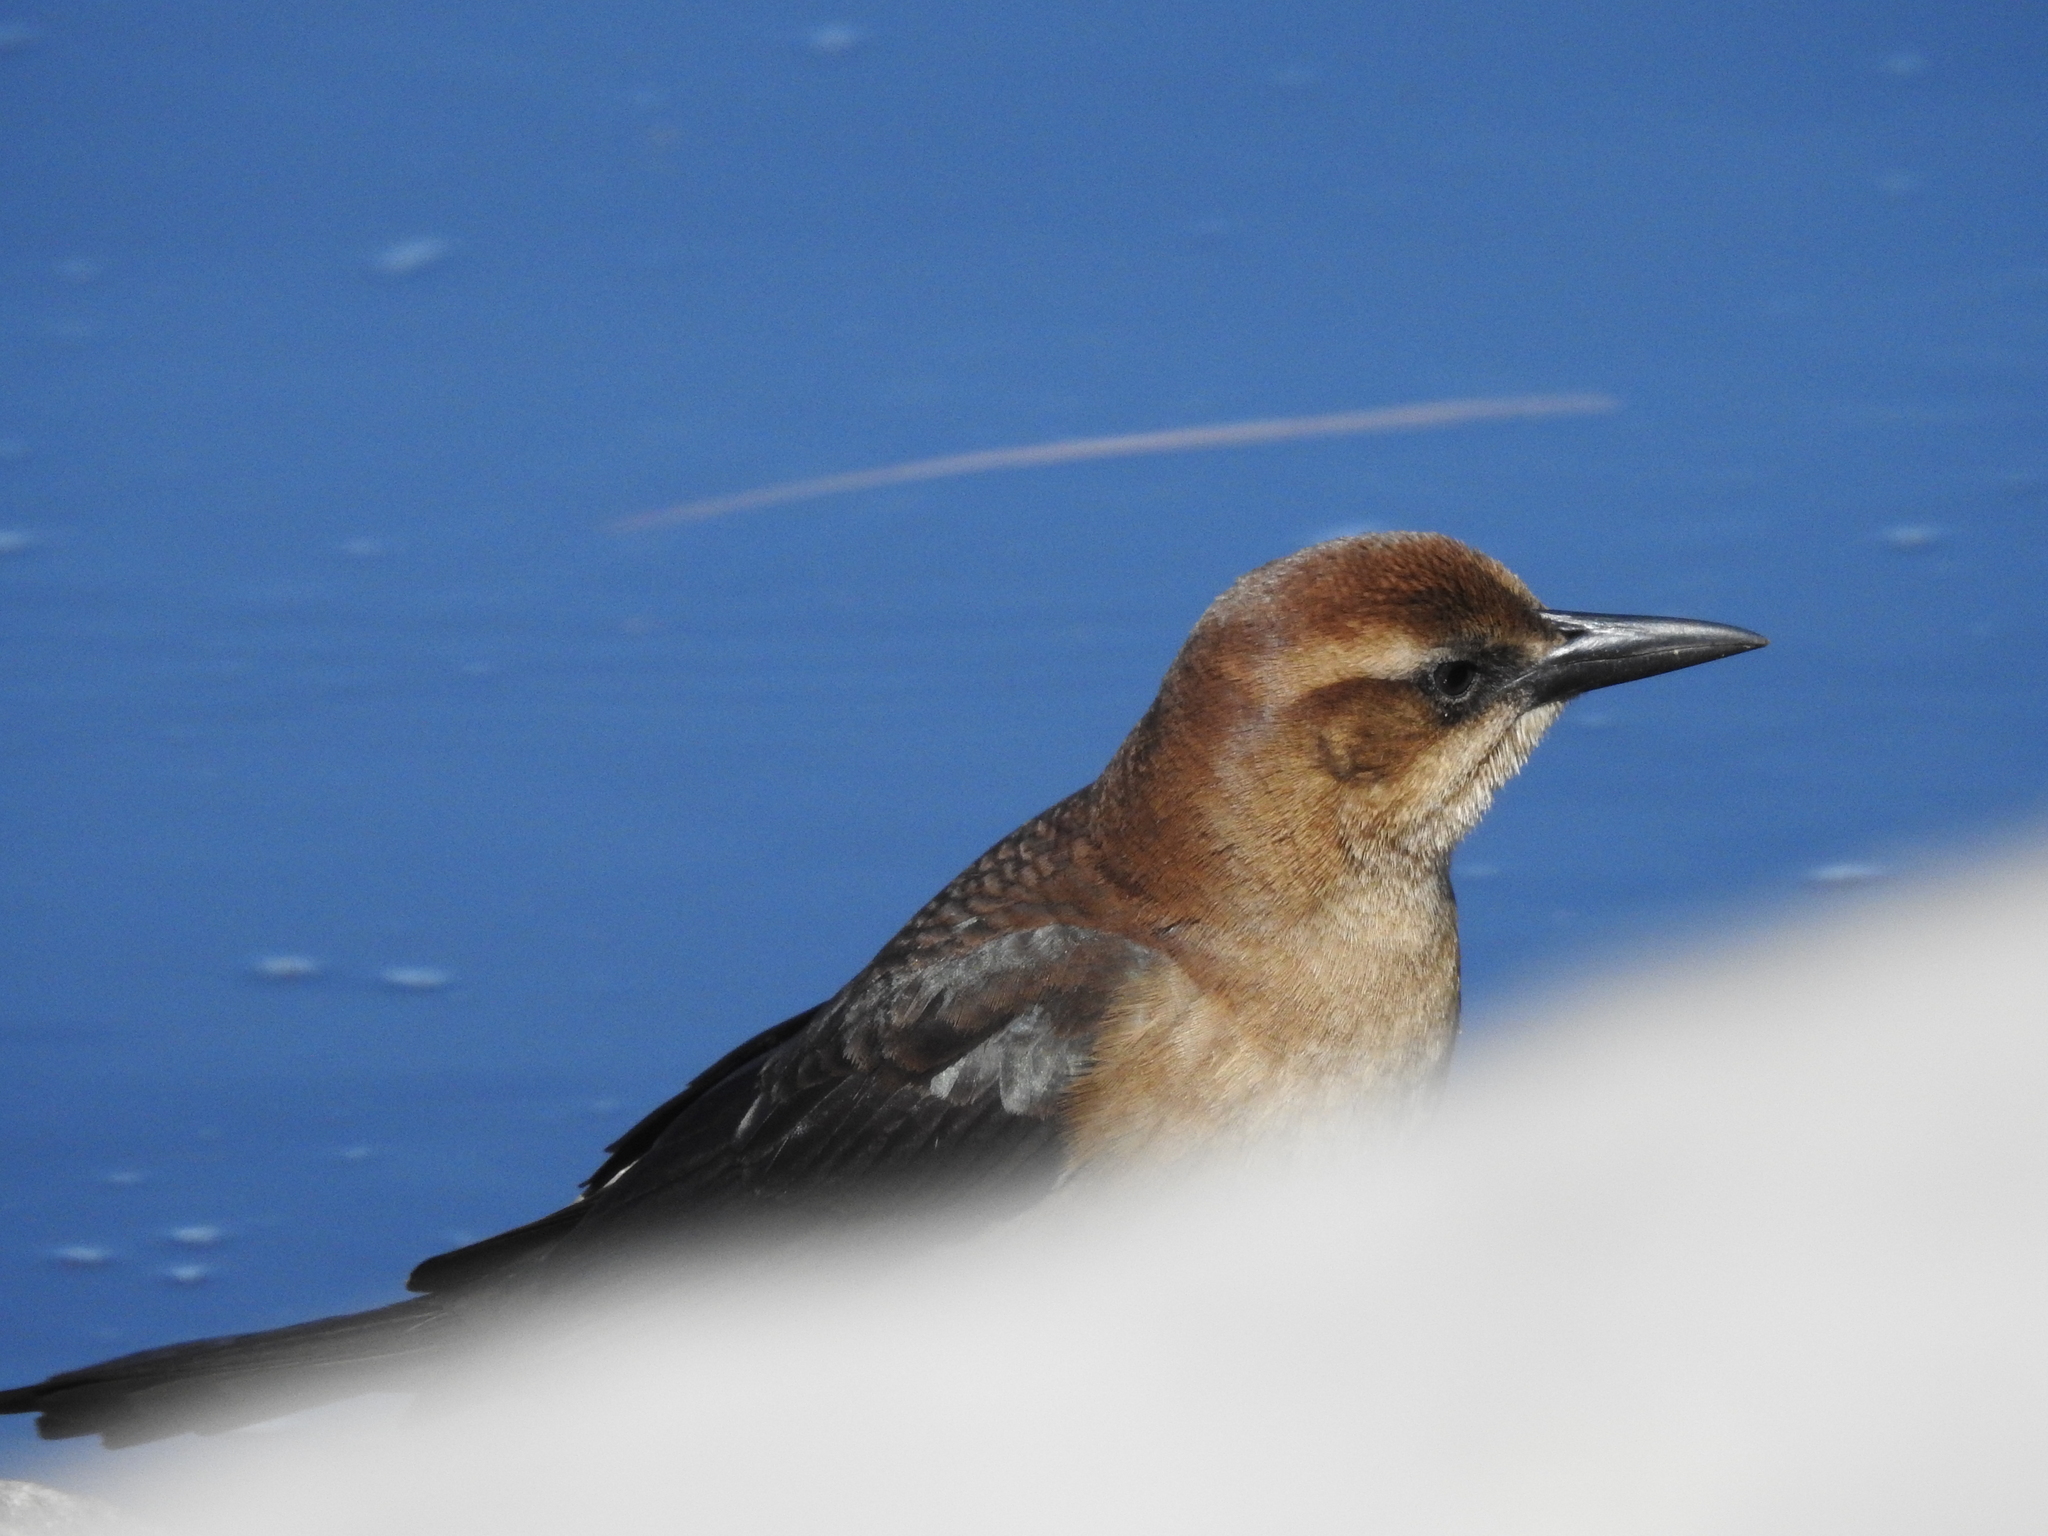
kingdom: Animalia
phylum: Chordata
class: Aves
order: Passeriformes
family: Icteridae
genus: Quiscalus
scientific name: Quiscalus major
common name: Boat-tailed grackle
